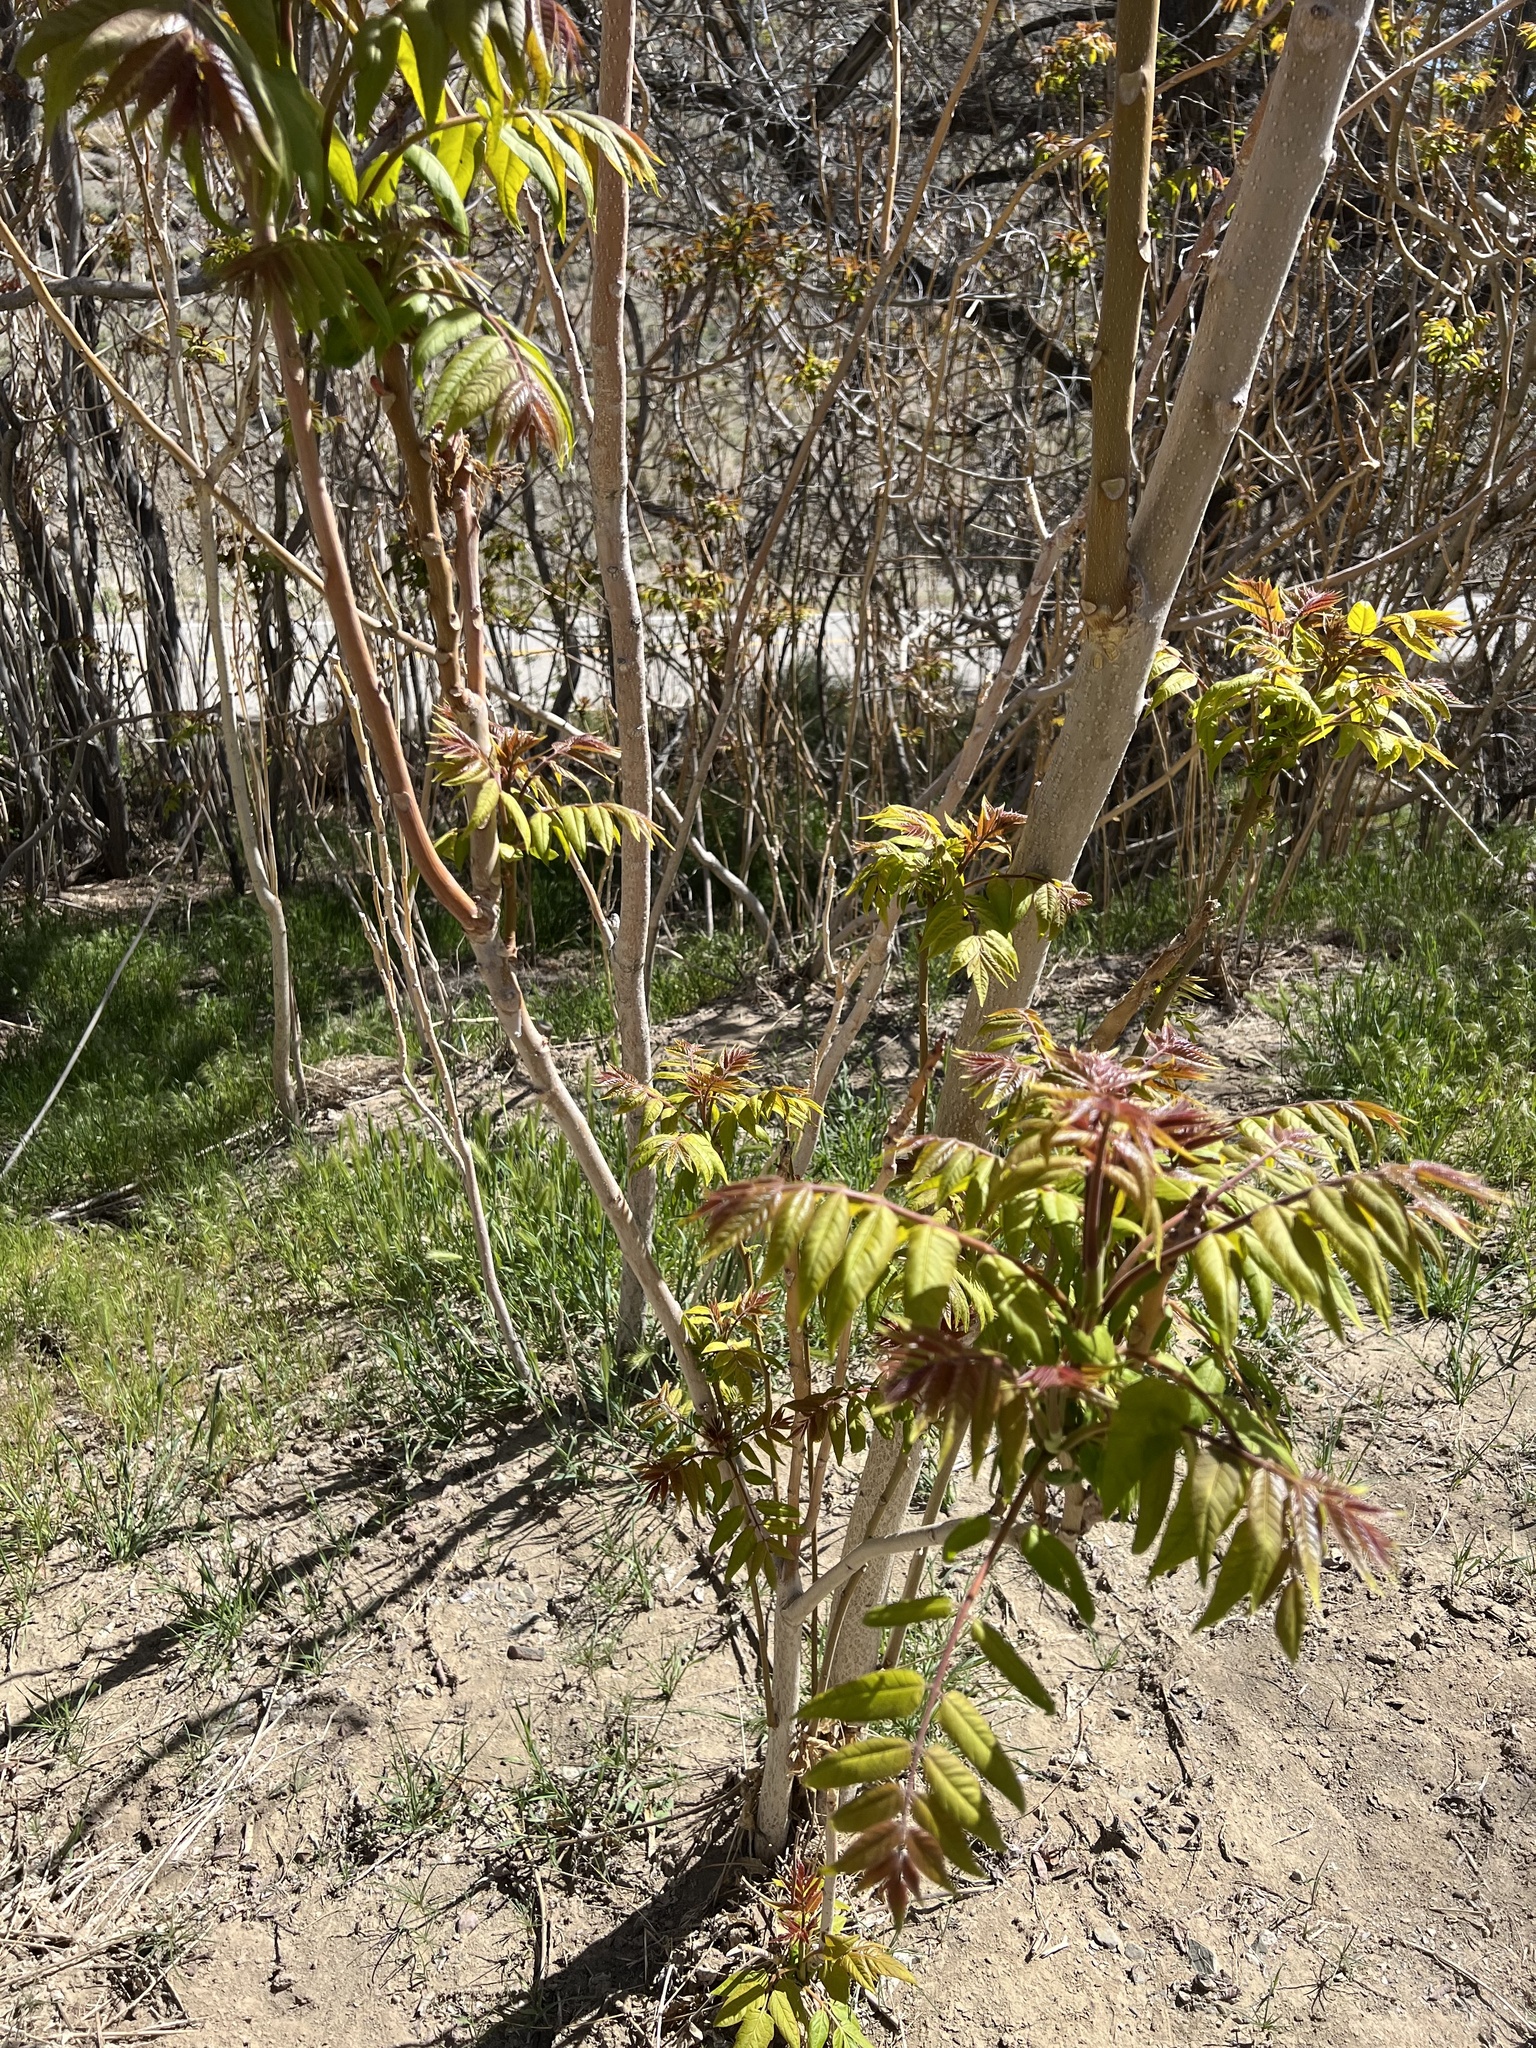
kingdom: Plantae
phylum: Tracheophyta
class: Magnoliopsida
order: Sapindales
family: Simaroubaceae
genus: Ailanthus
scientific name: Ailanthus altissima
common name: Tree-of-heaven
